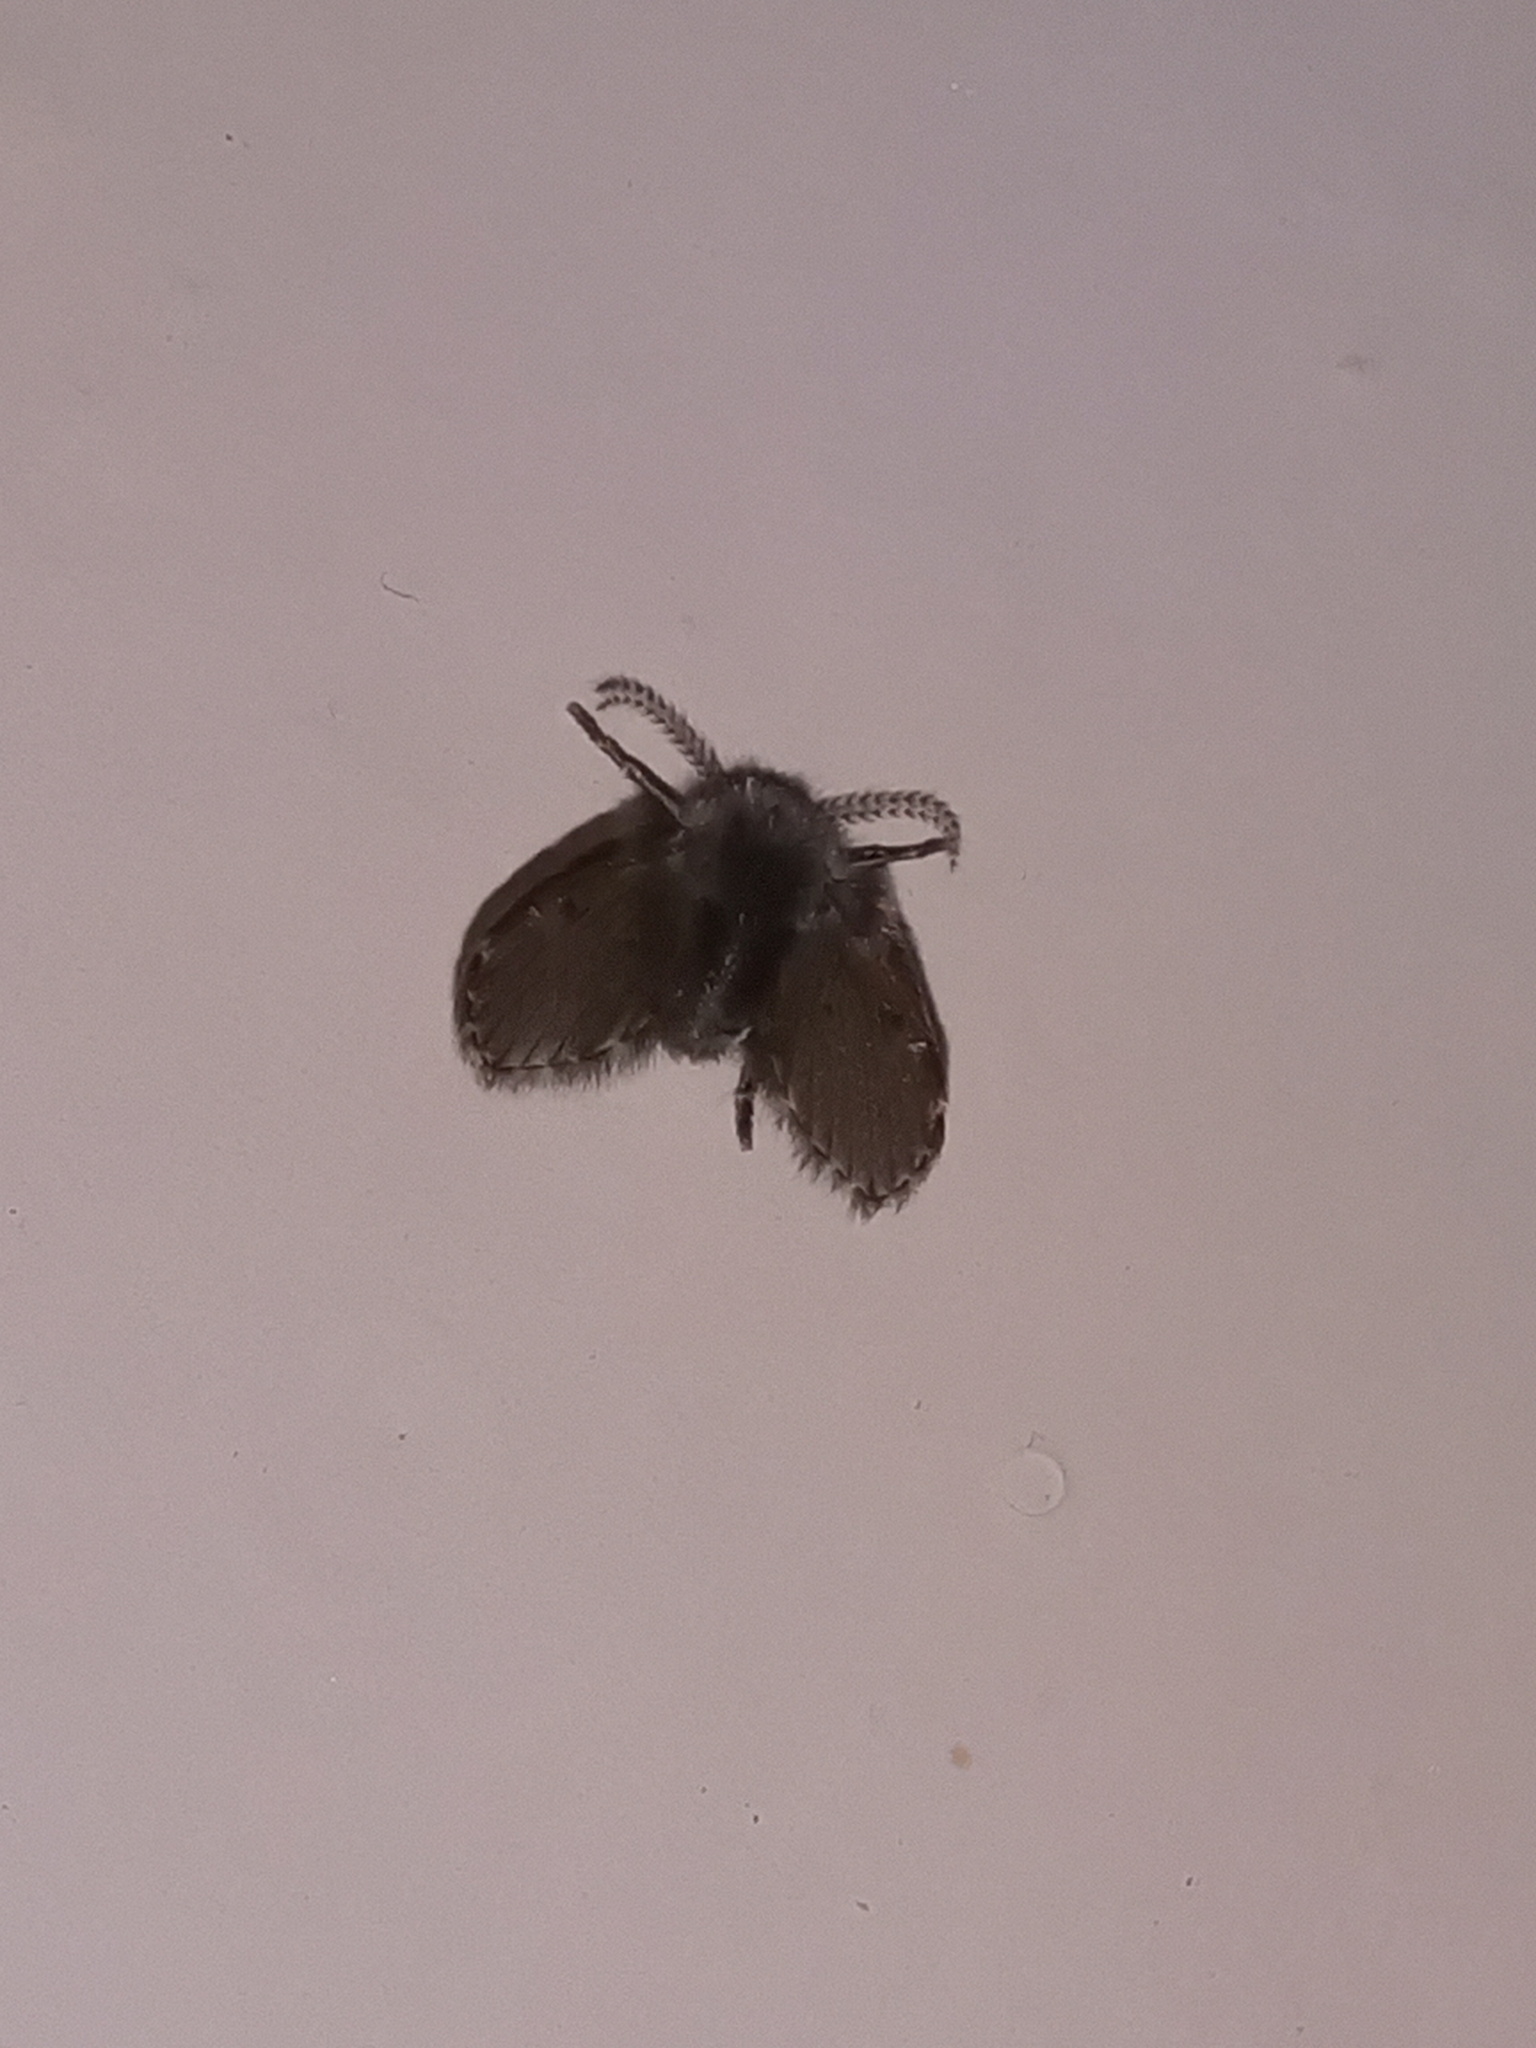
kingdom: Animalia
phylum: Arthropoda
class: Insecta
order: Diptera
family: Psychodidae
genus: Clogmia
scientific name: Clogmia albipunctatus
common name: White-spotted moth fly
